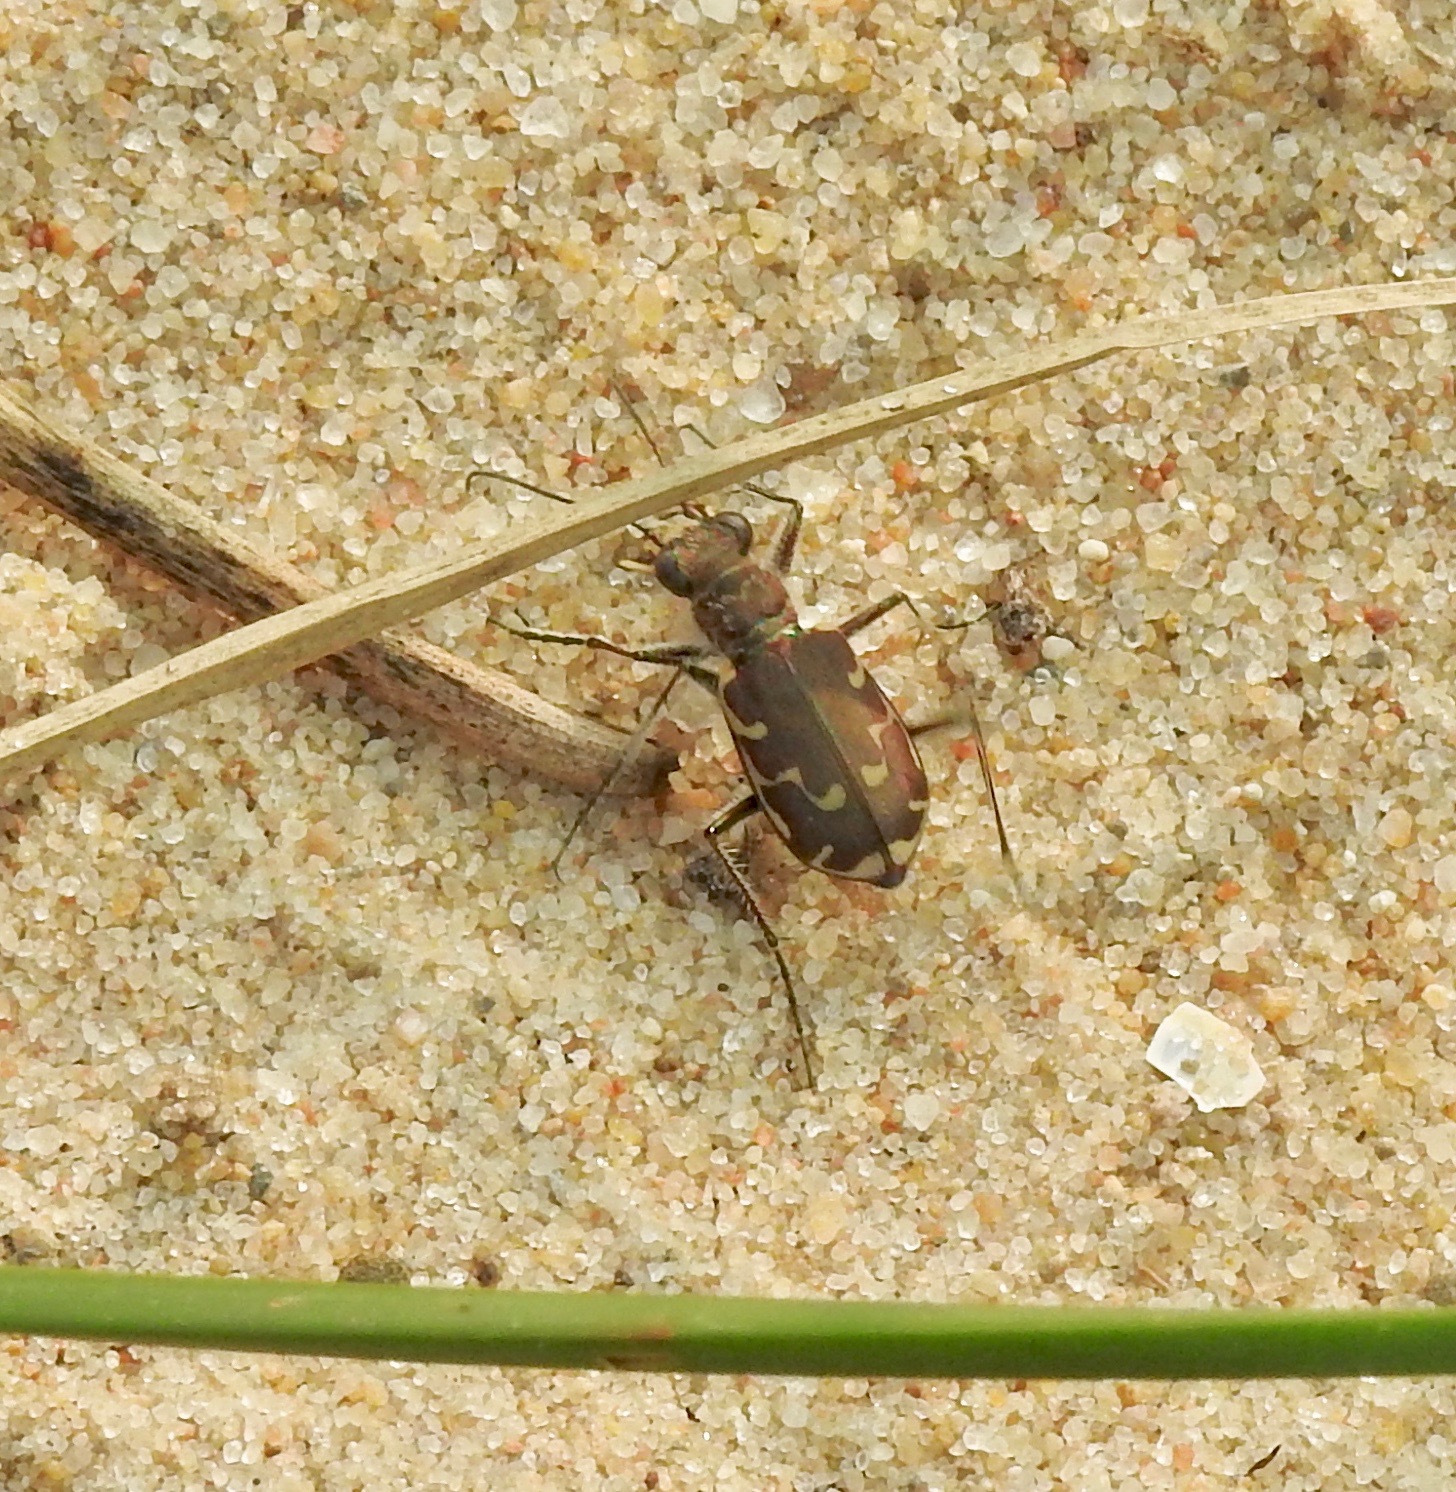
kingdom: Animalia
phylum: Arthropoda
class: Insecta
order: Coleoptera
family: Carabidae
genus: Cicindela
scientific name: Cicindela repanda
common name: Bronzed tiger beetle
